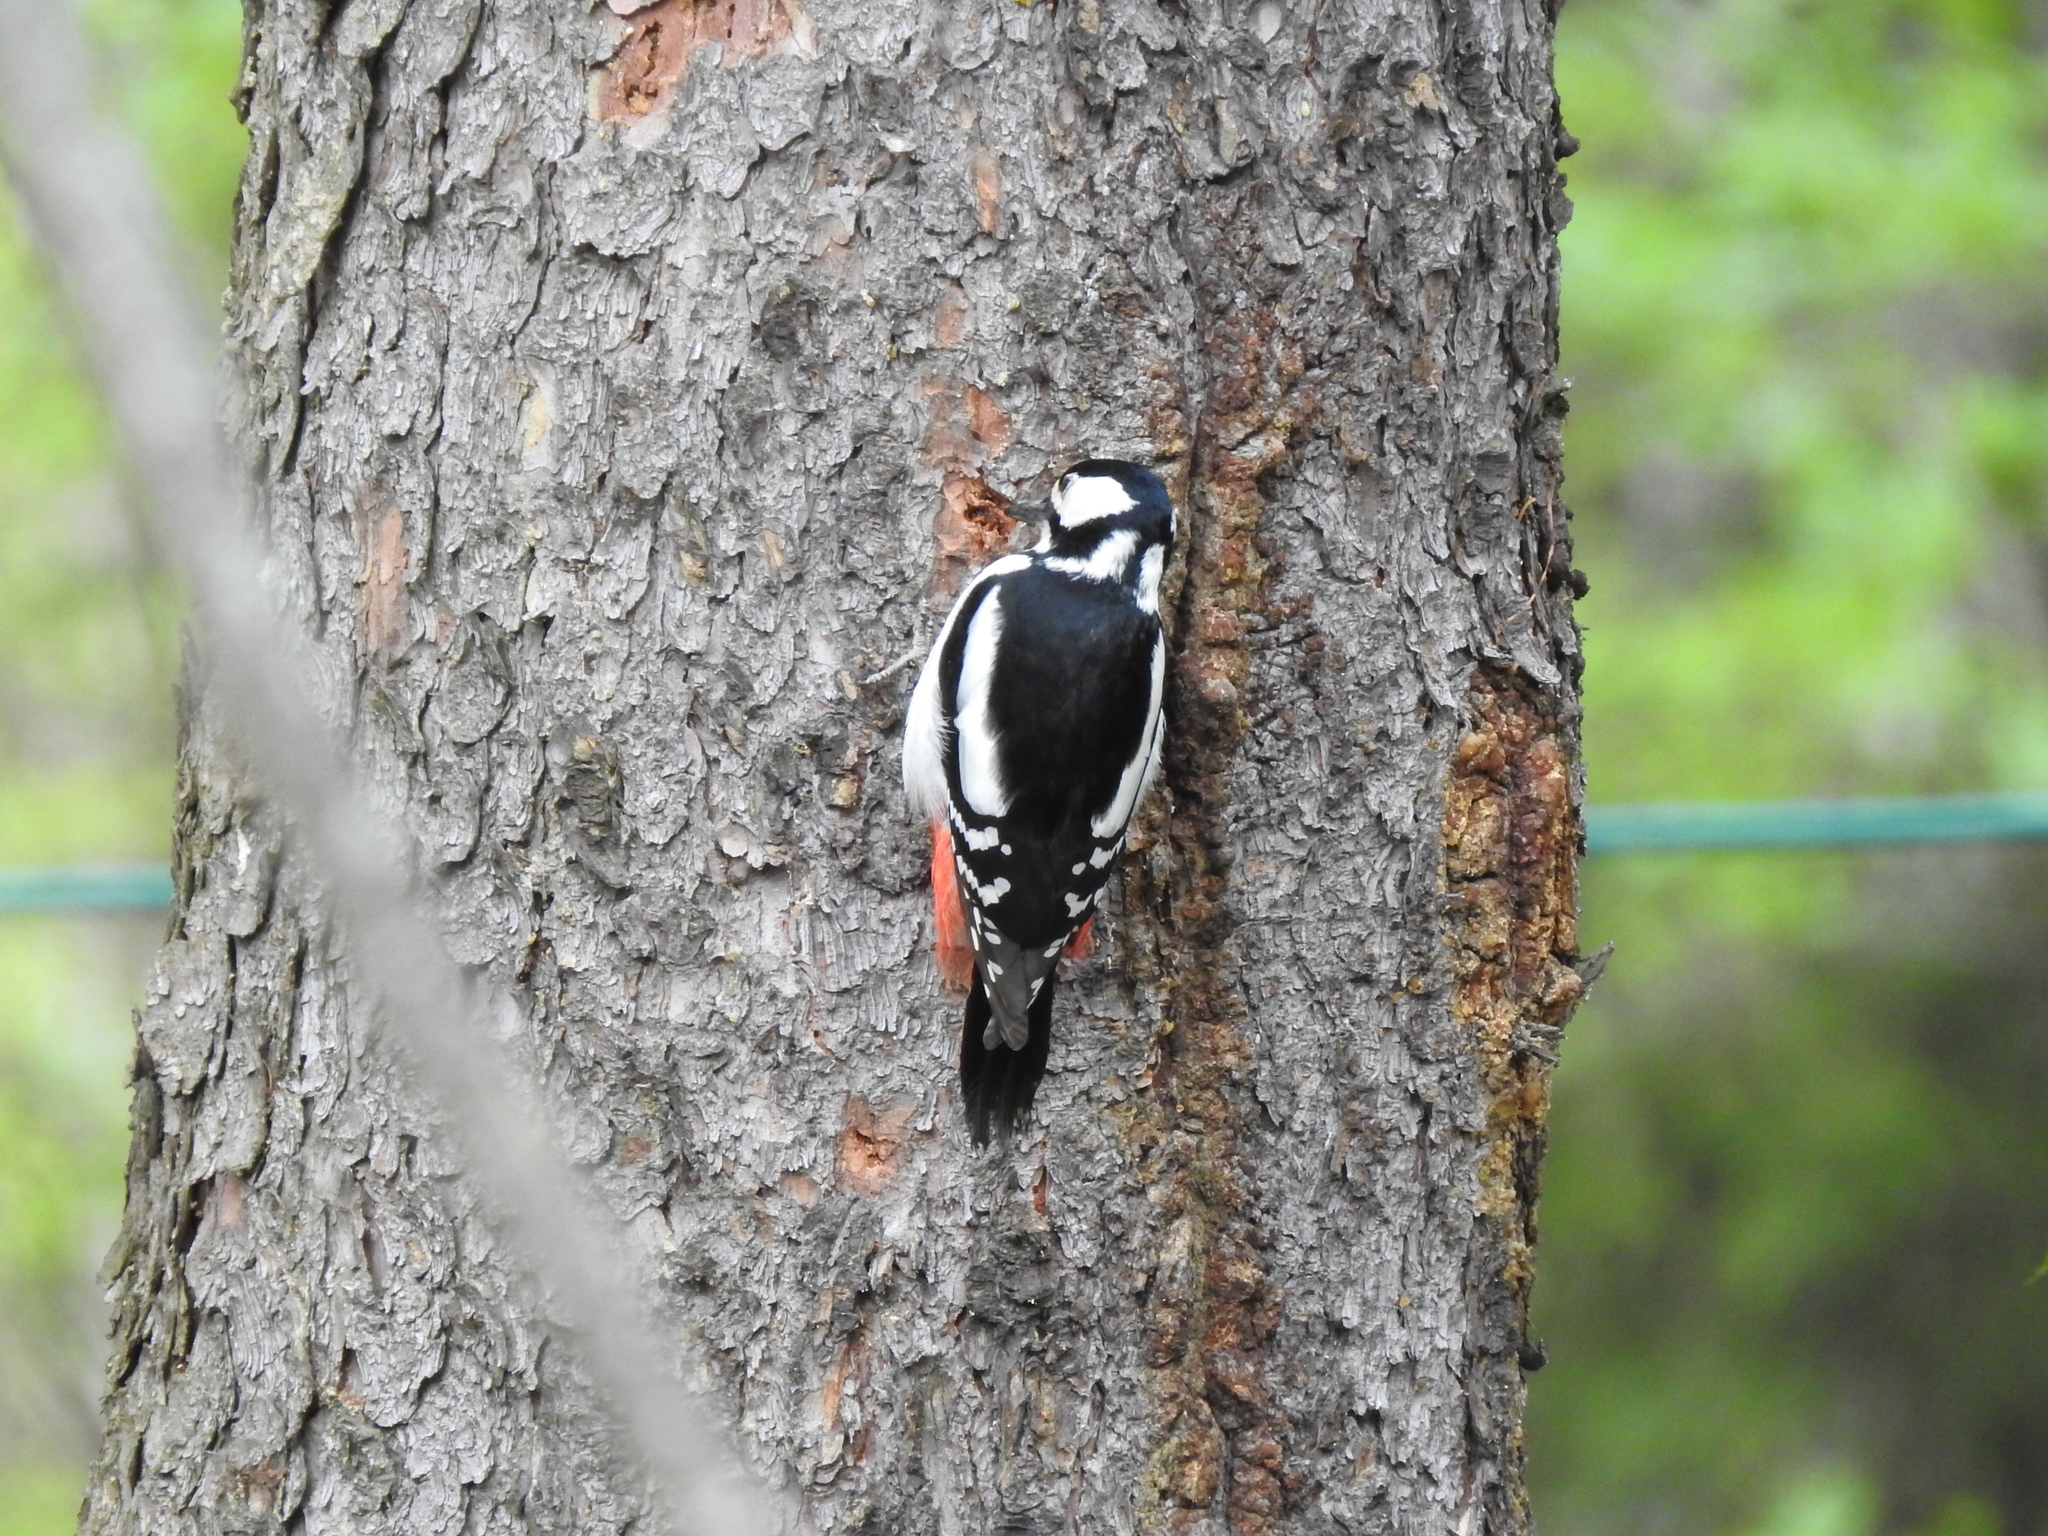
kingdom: Animalia
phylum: Chordata
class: Aves
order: Piciformes
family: Picidae
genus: Dendrocopos
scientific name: Dendrocopos major
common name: Great spotted woodpecker
